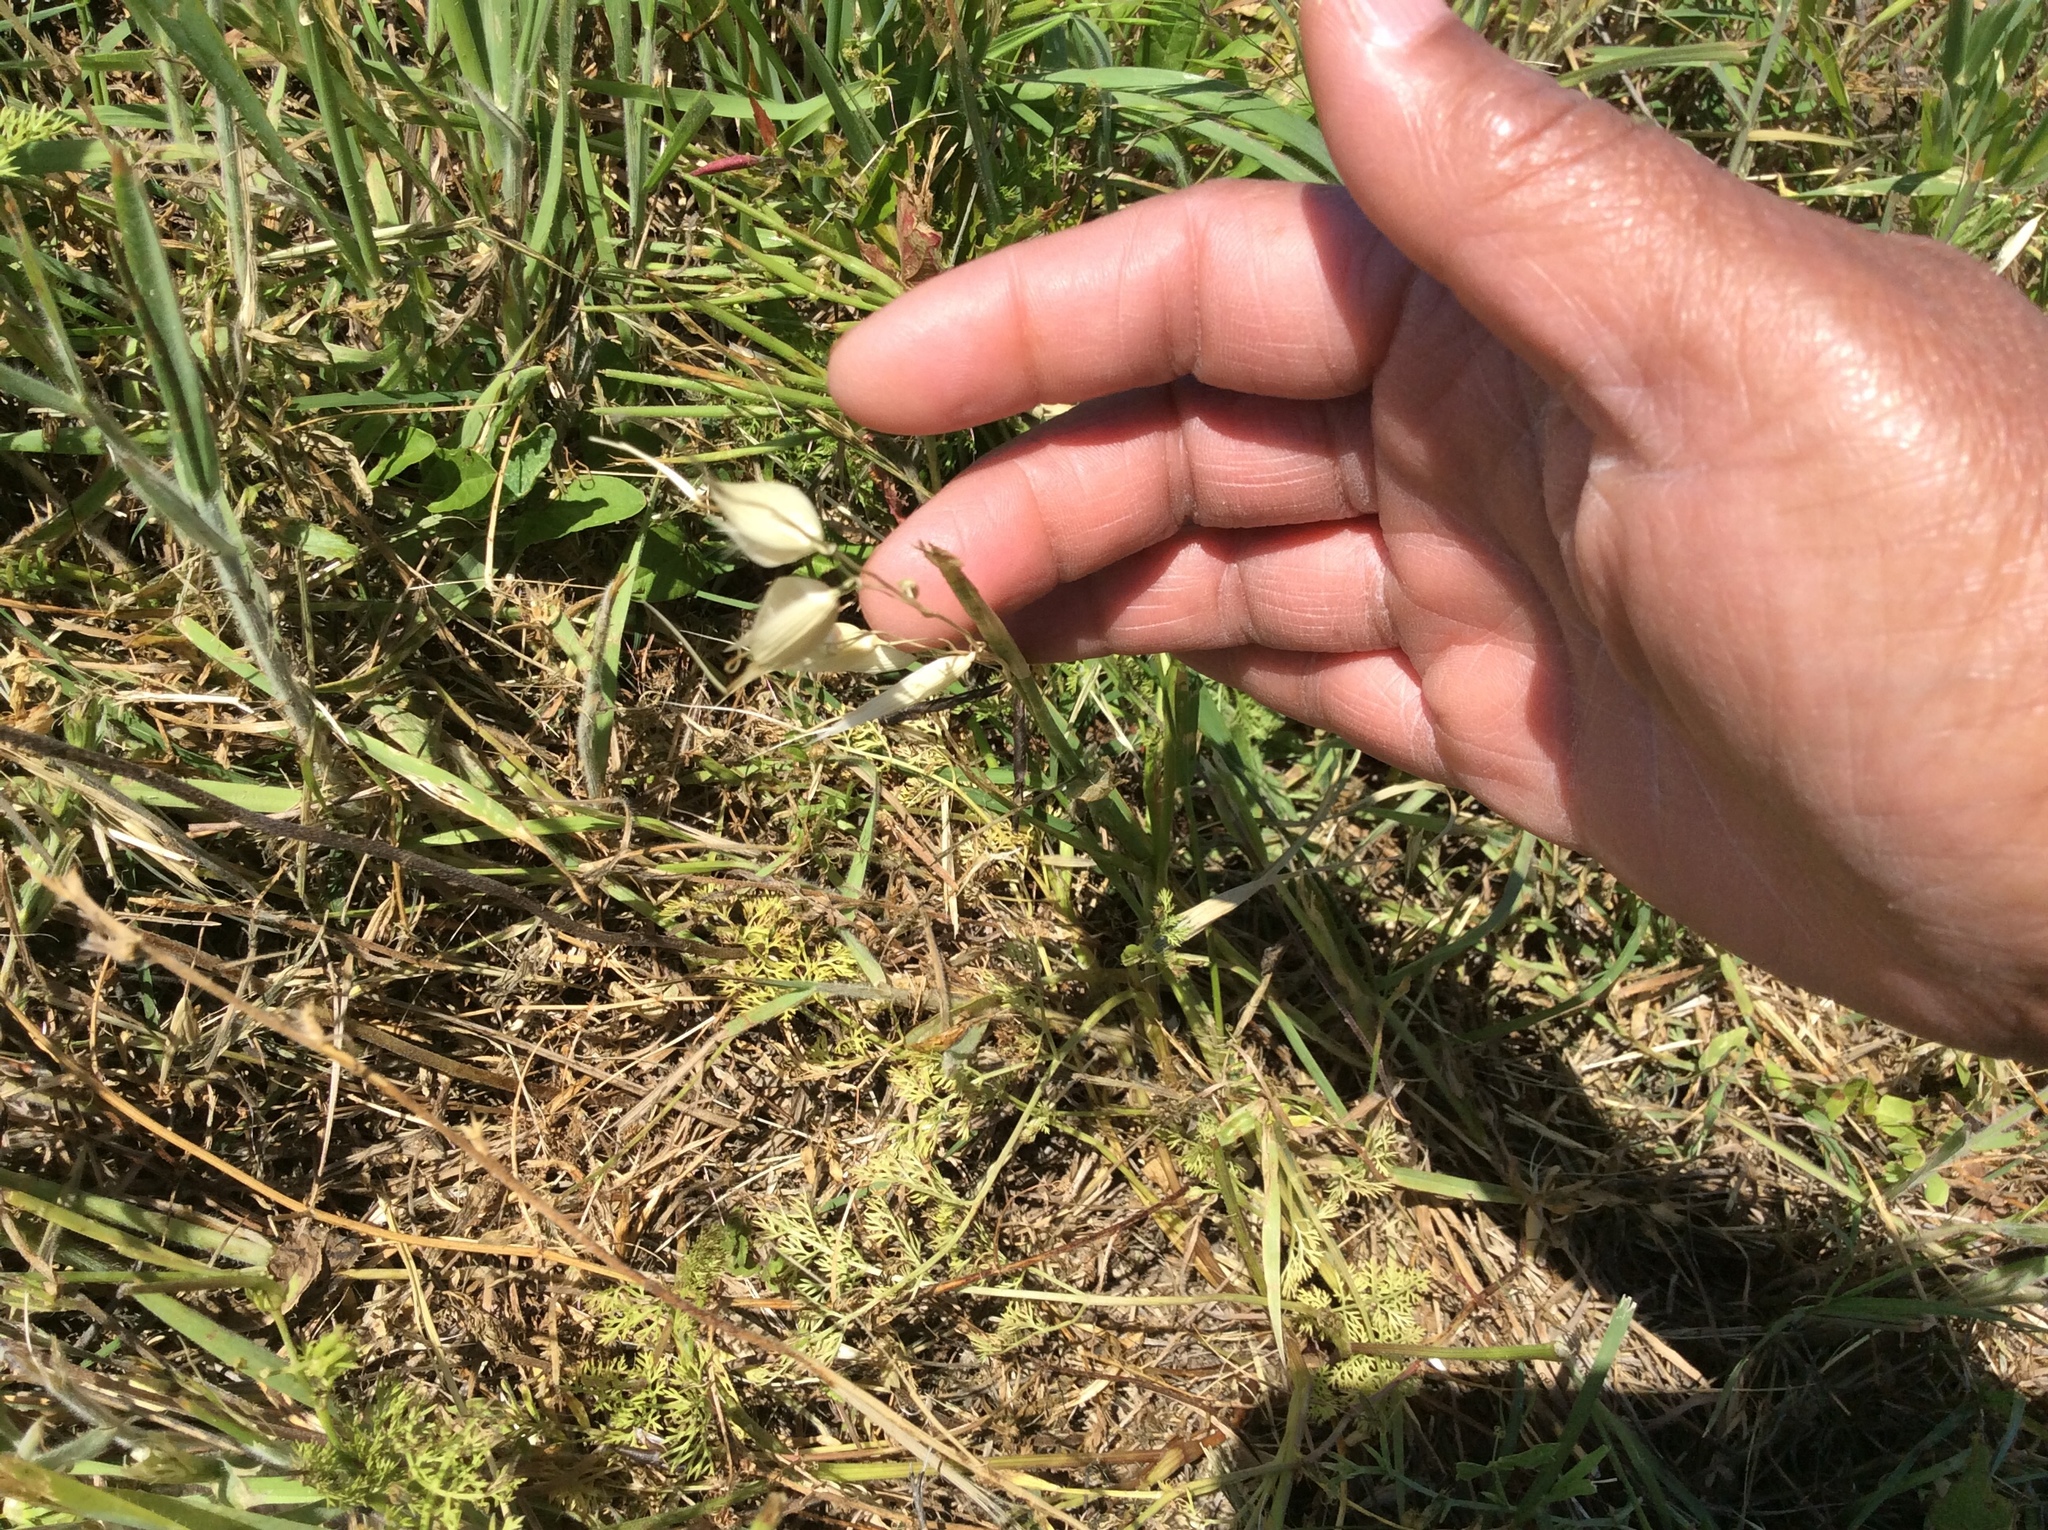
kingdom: Plantae
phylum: Tracheophyta
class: Liliopsida
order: Poales
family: Poaceae
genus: Avena
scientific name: Avena fatua
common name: Wild oat
